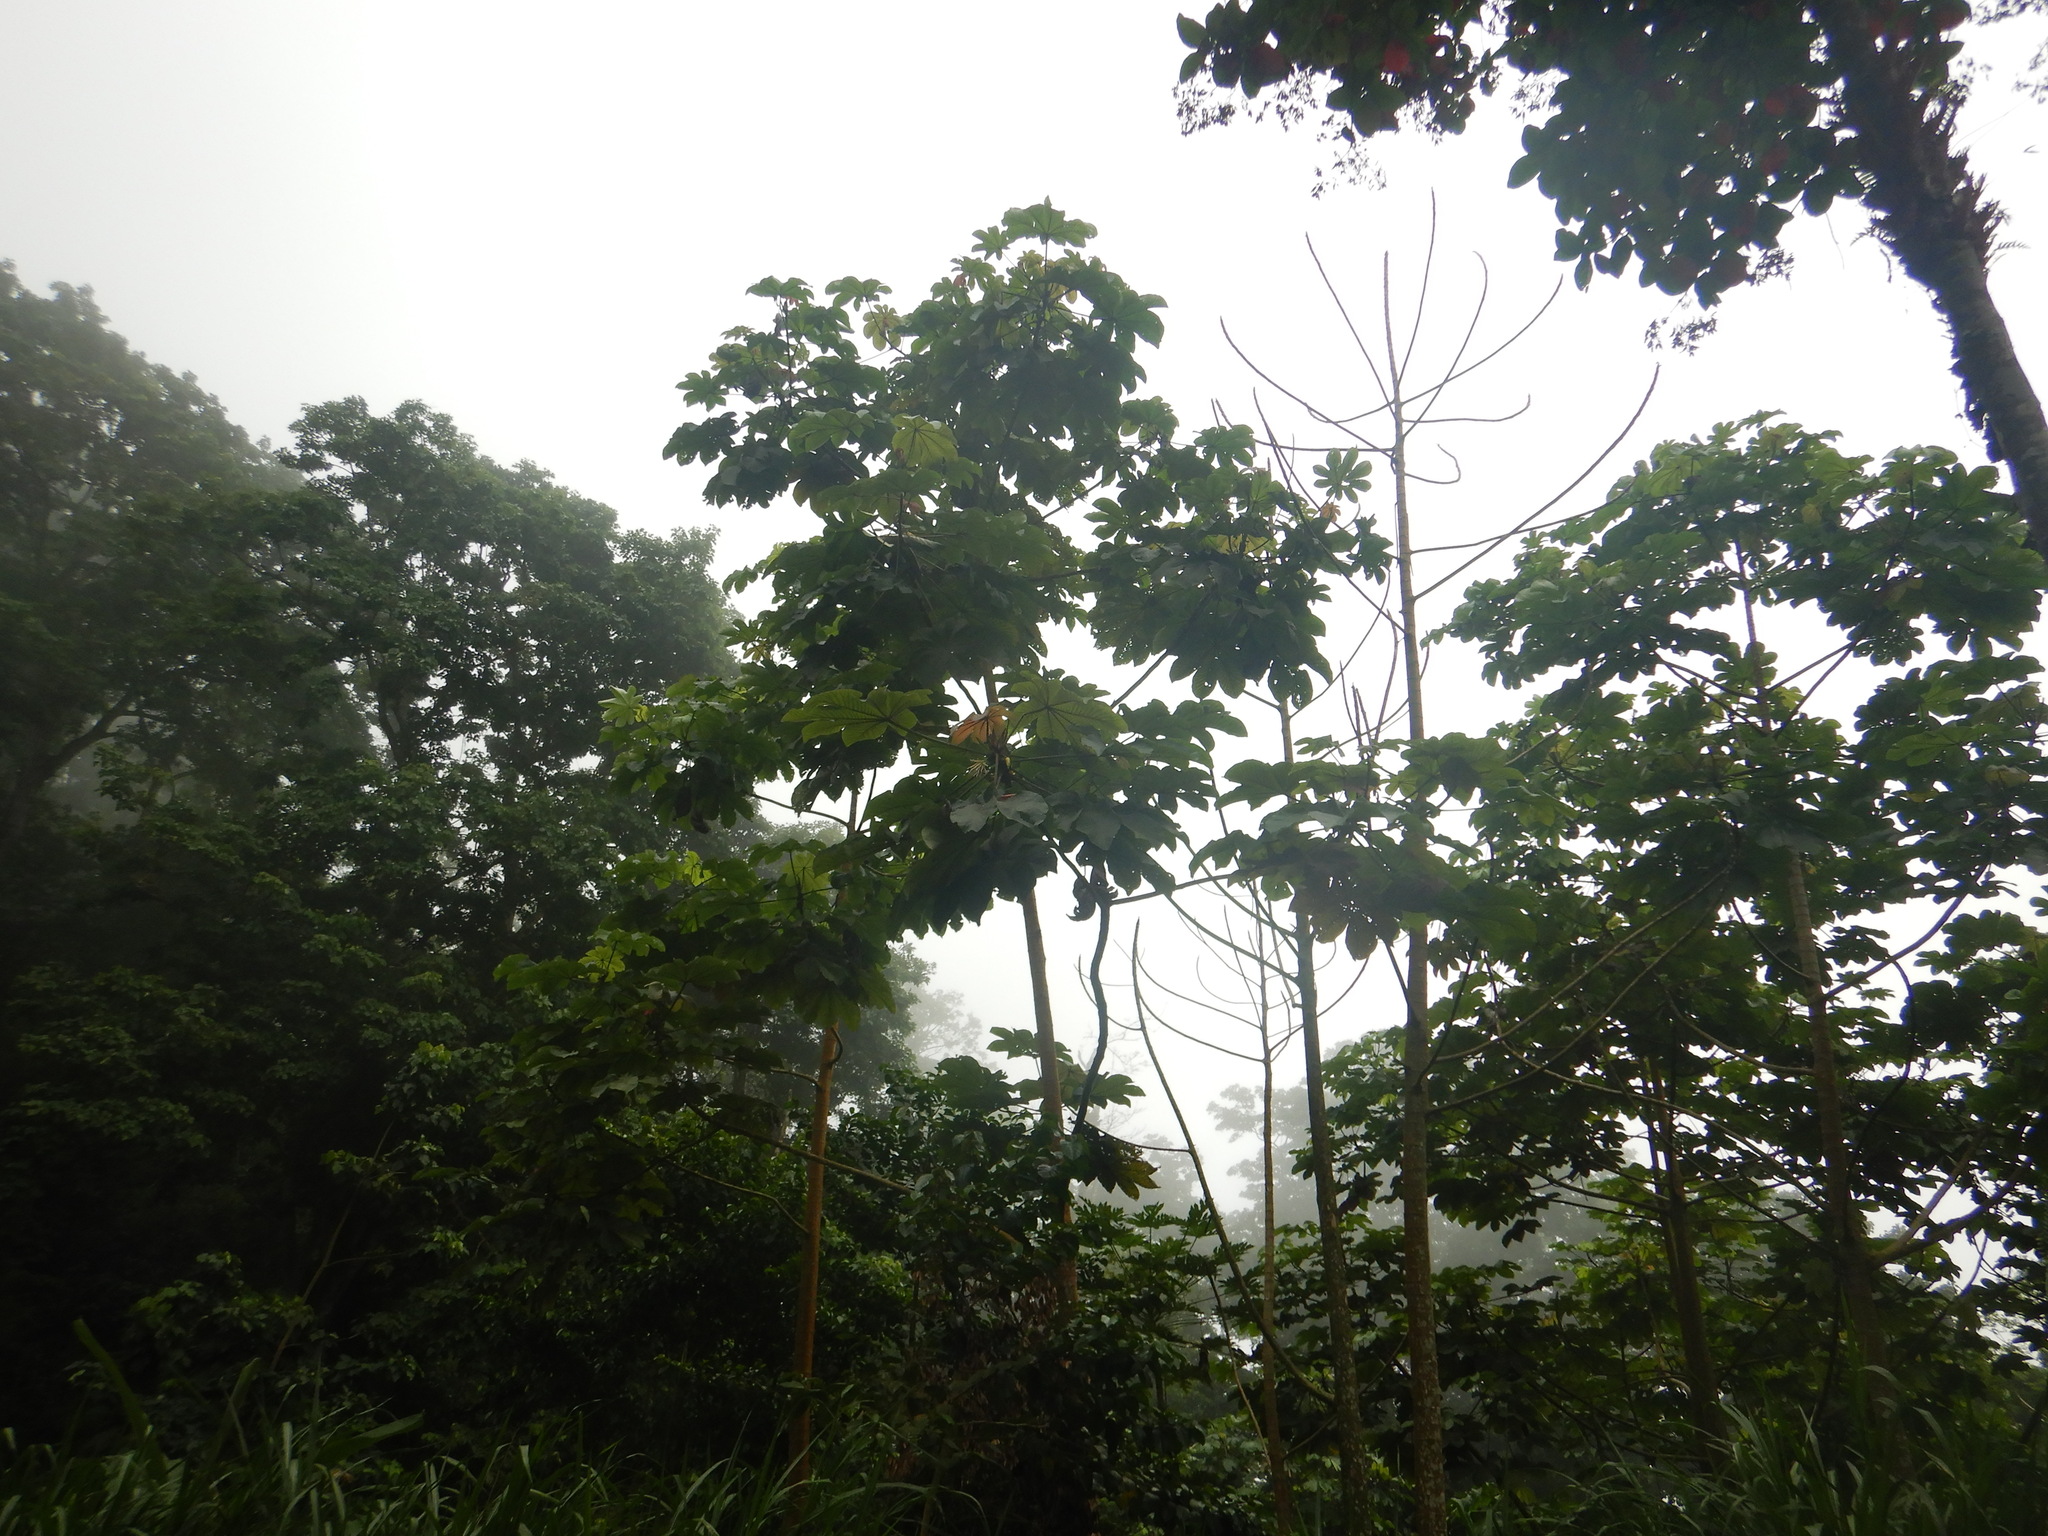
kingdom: Plantae
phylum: Tracheophyta
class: Magnoliopsida
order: Rosales
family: Urticaceae
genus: Cecropia
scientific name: Cecropia peltata
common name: Trumpet-tree
